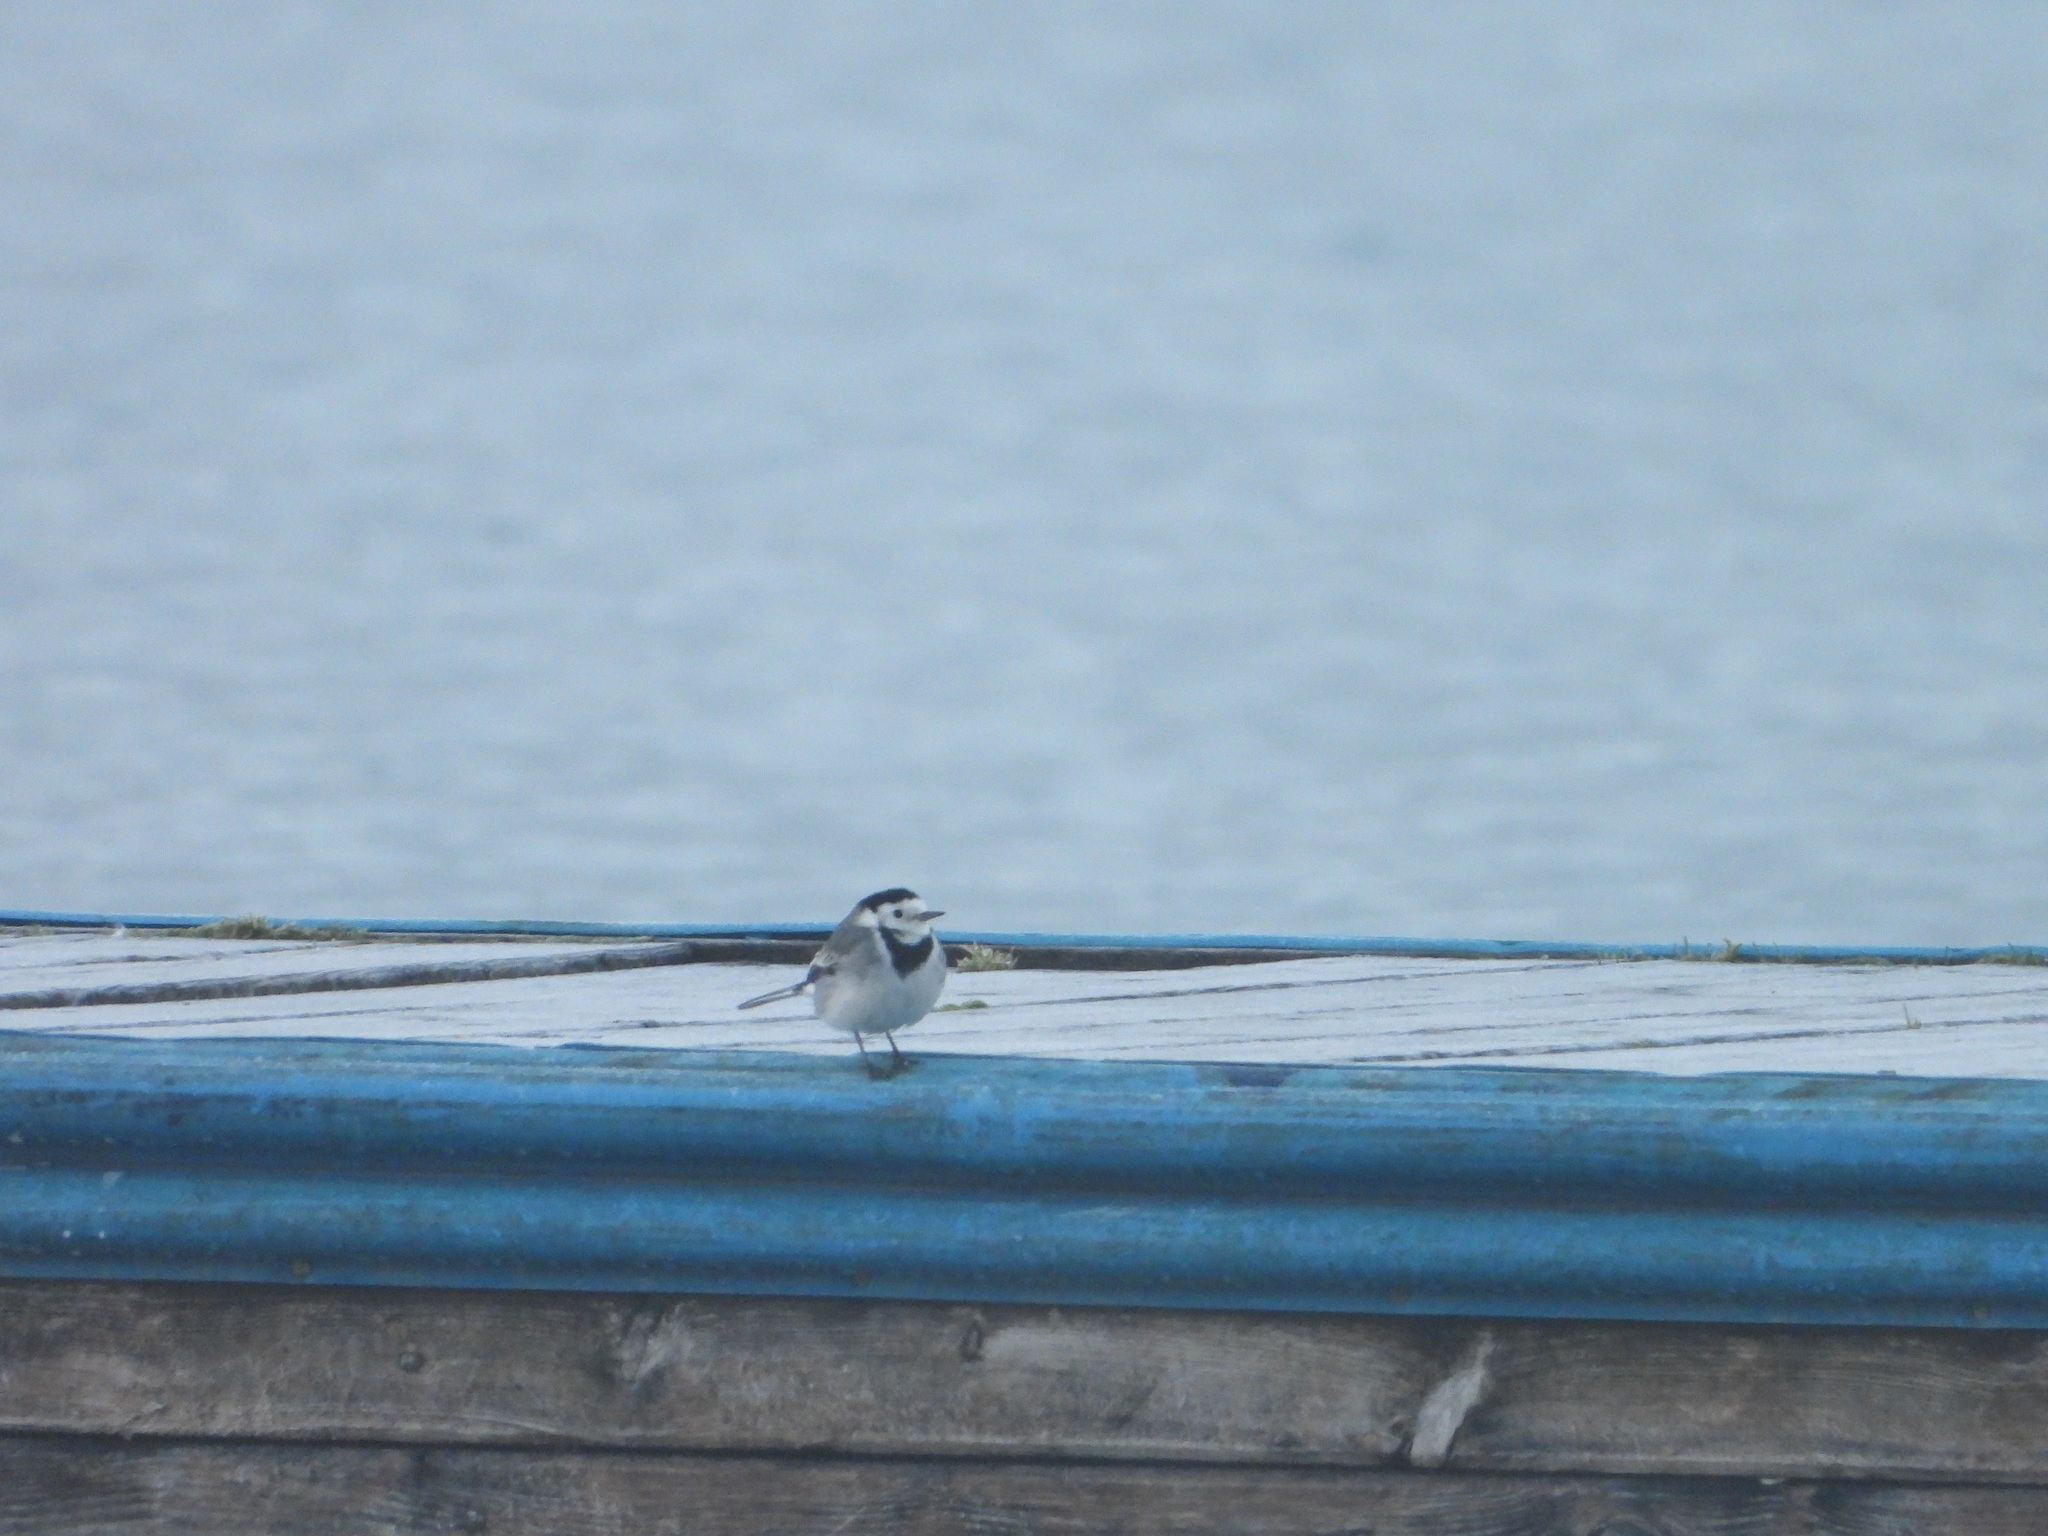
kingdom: Animalia
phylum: Chordata
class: Aves
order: Passeriformes
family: Motacillidae
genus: Motacilla
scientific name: Motacilla alba
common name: White wagtail
